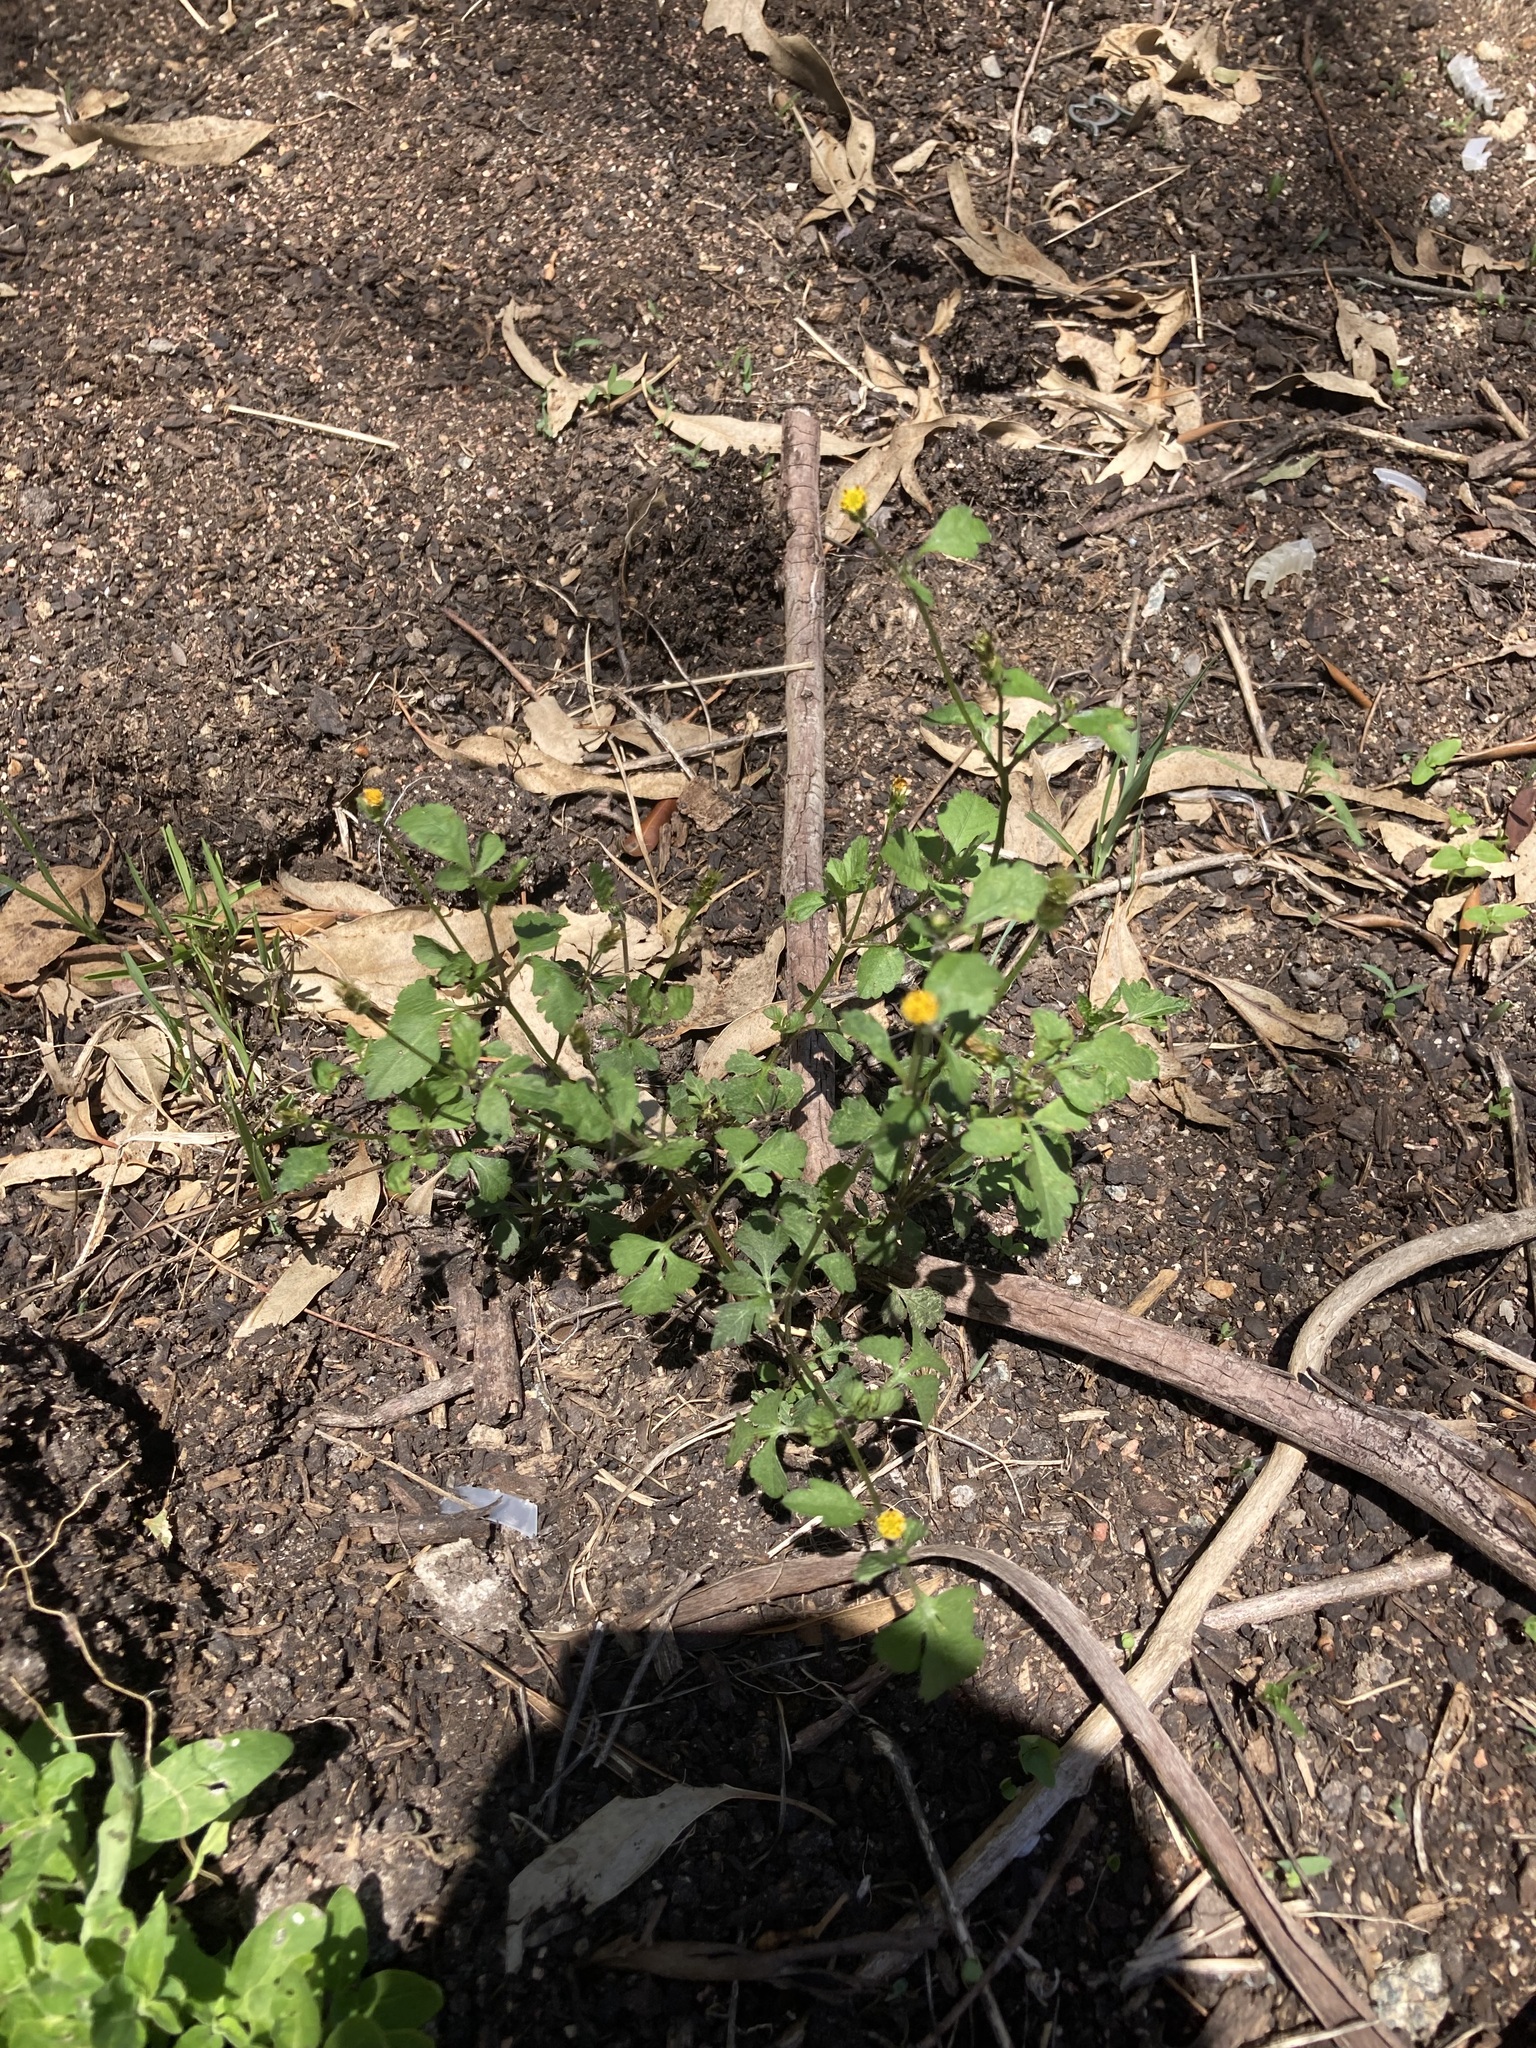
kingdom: Plantae
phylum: Tracheophyta
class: Magnoliopsida
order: Asterales
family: Asteraceae
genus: Bidens
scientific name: Bidens pilosa
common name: Black-jack
